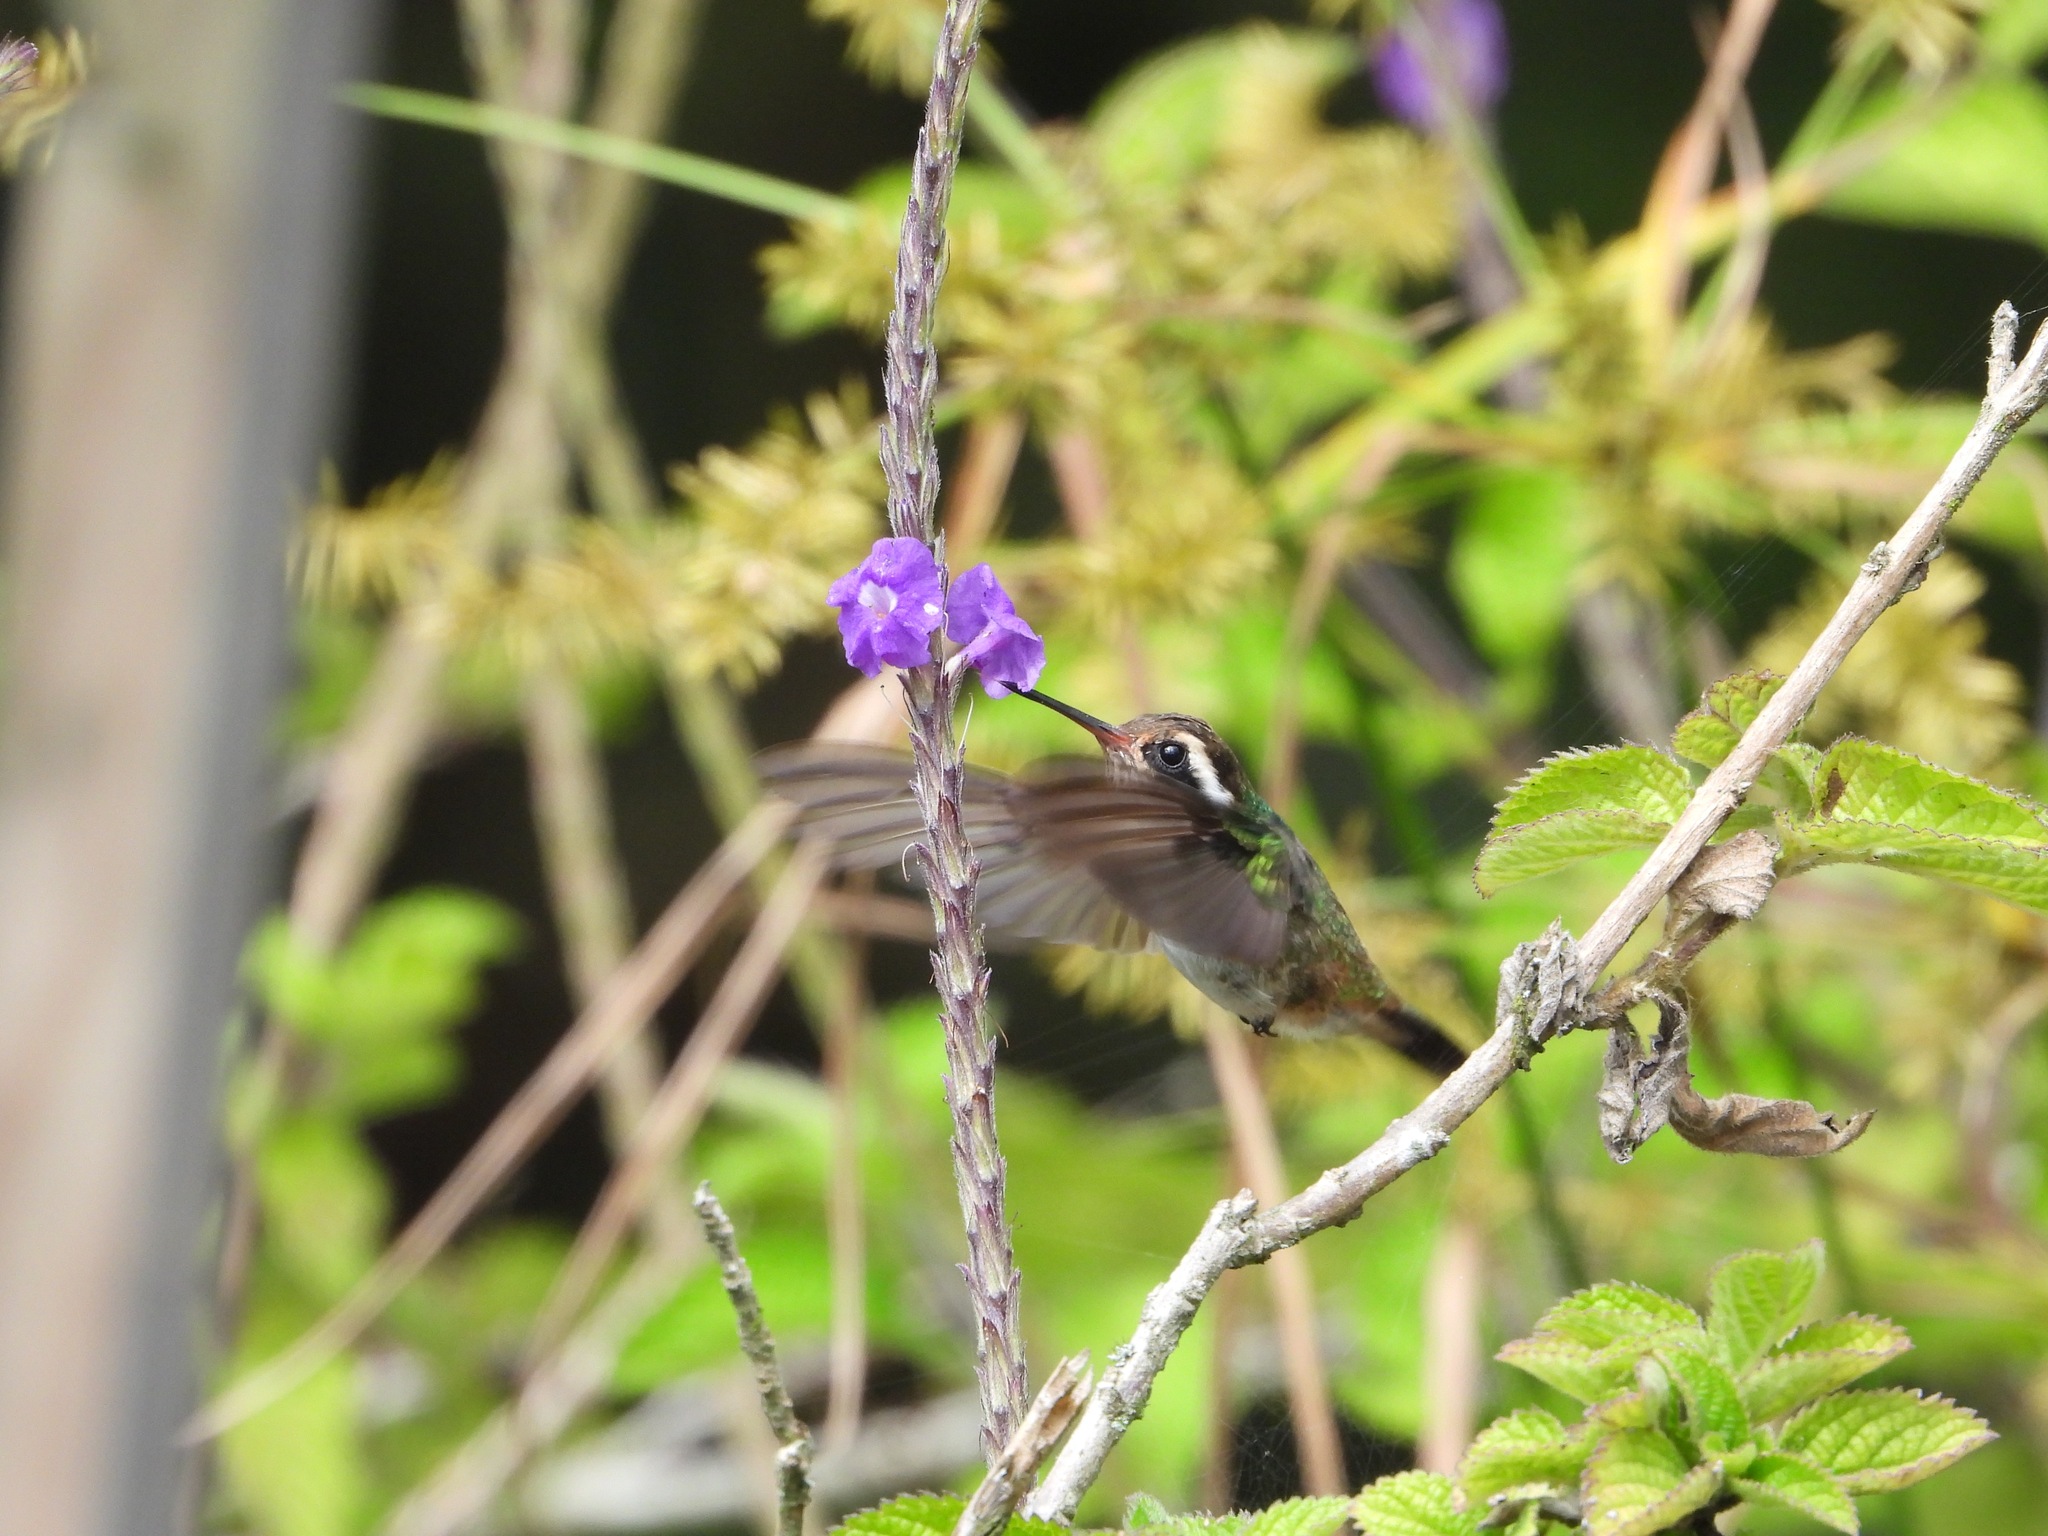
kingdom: Animalia
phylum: Chordata
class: Aves
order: Apodiformes
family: Trochilidae
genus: Basilinna
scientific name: Basilinna leucotis
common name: White-eared hummingbird
